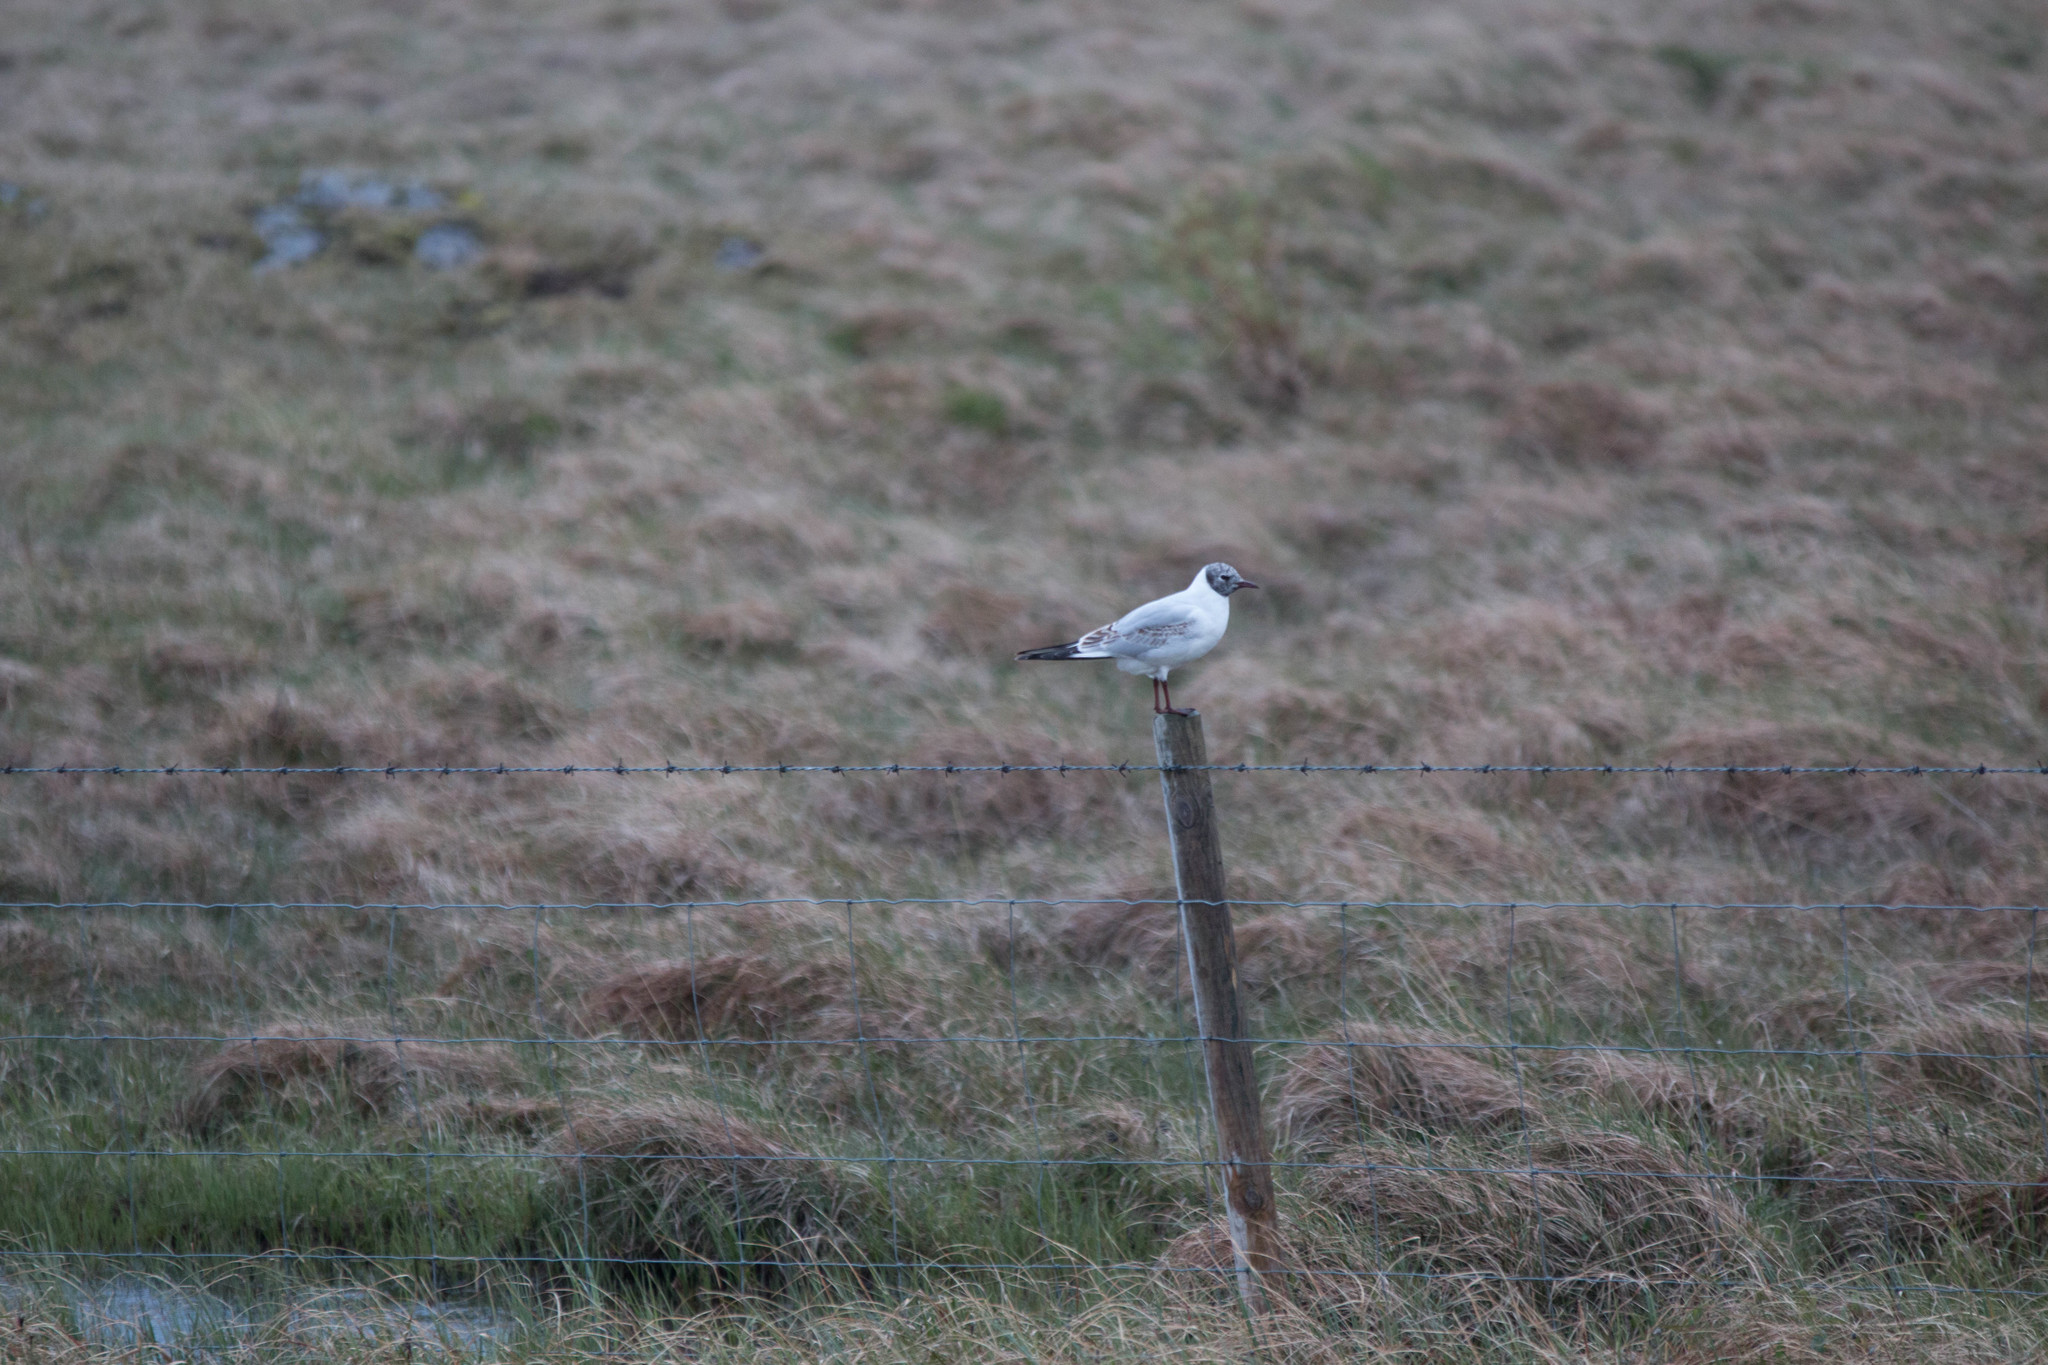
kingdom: Animalia
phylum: Chordata
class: Aves
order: Charadriiformes
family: Laridae
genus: Chroicocephalus
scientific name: Chroicocephalus ridibundus
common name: Black-headed gull
